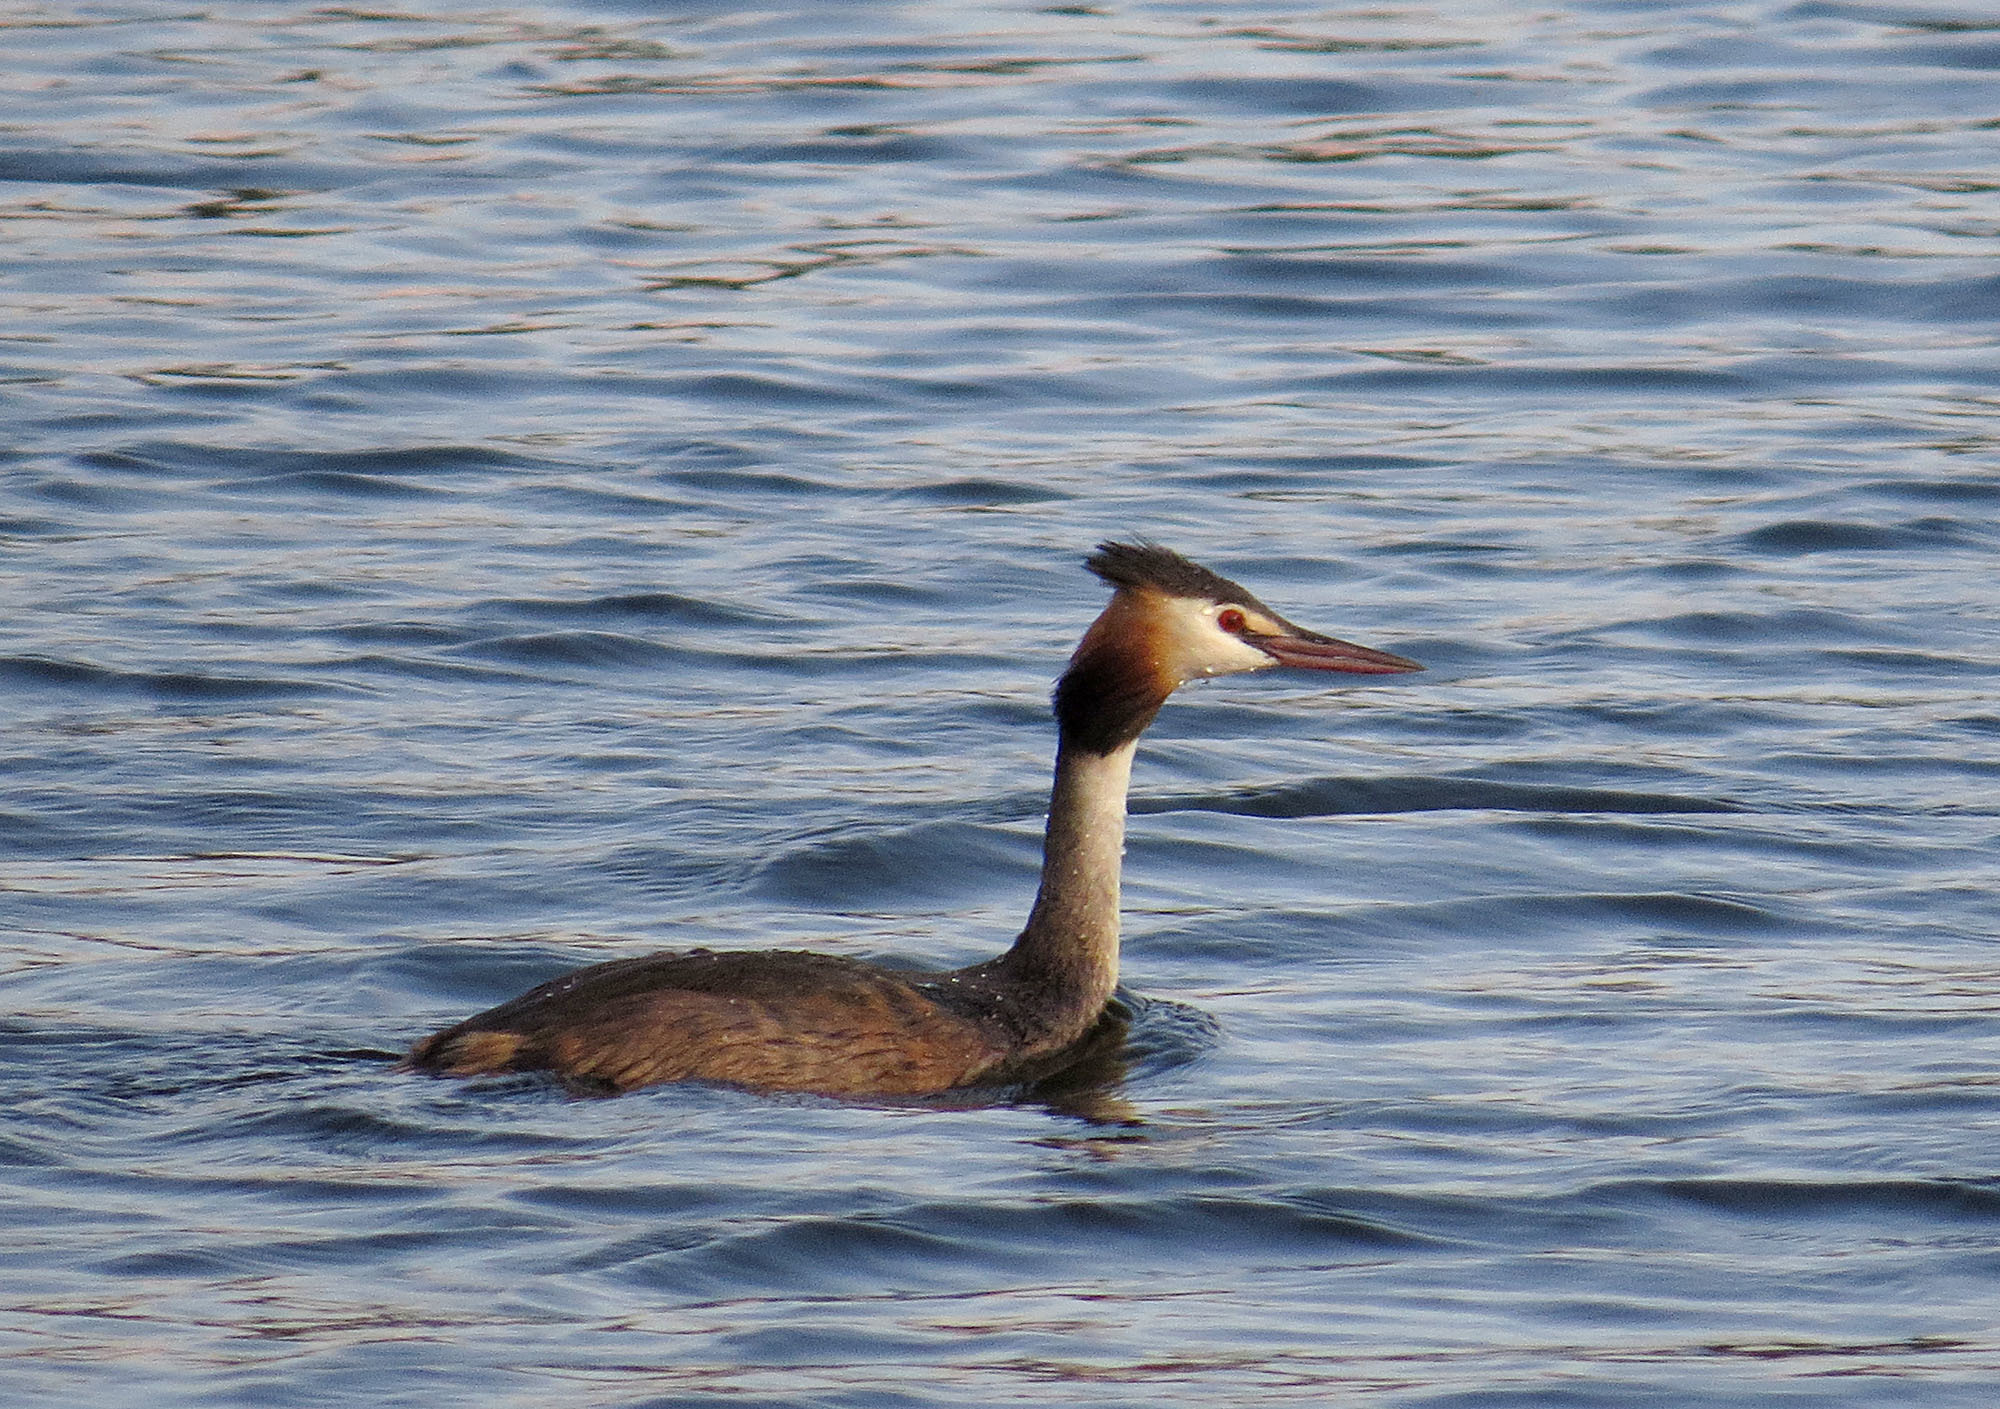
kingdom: Animalia
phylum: Chordata
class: Aves
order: Podicipediformes
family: Podicipedidae
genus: Podiceps
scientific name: Podiceps cristatus
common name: Great crested grebe
